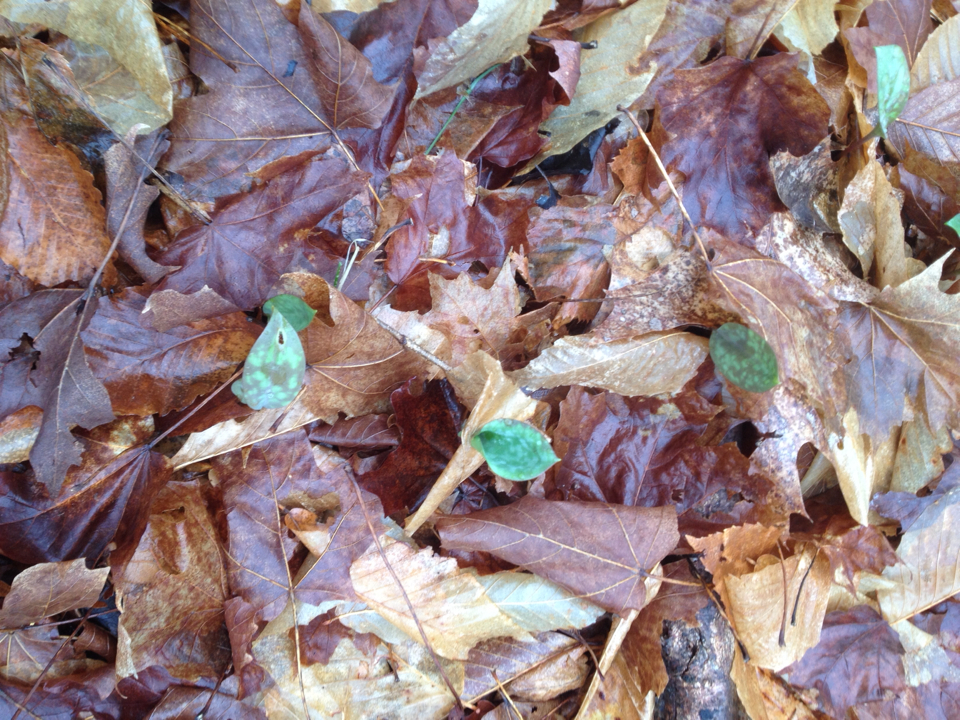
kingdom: Plantae
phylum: Tracheophyta
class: Liliopsida
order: Liliales
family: Liliaceae
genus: Erythronium
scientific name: Erythronium americanum
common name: Yellow adder's-tongue
